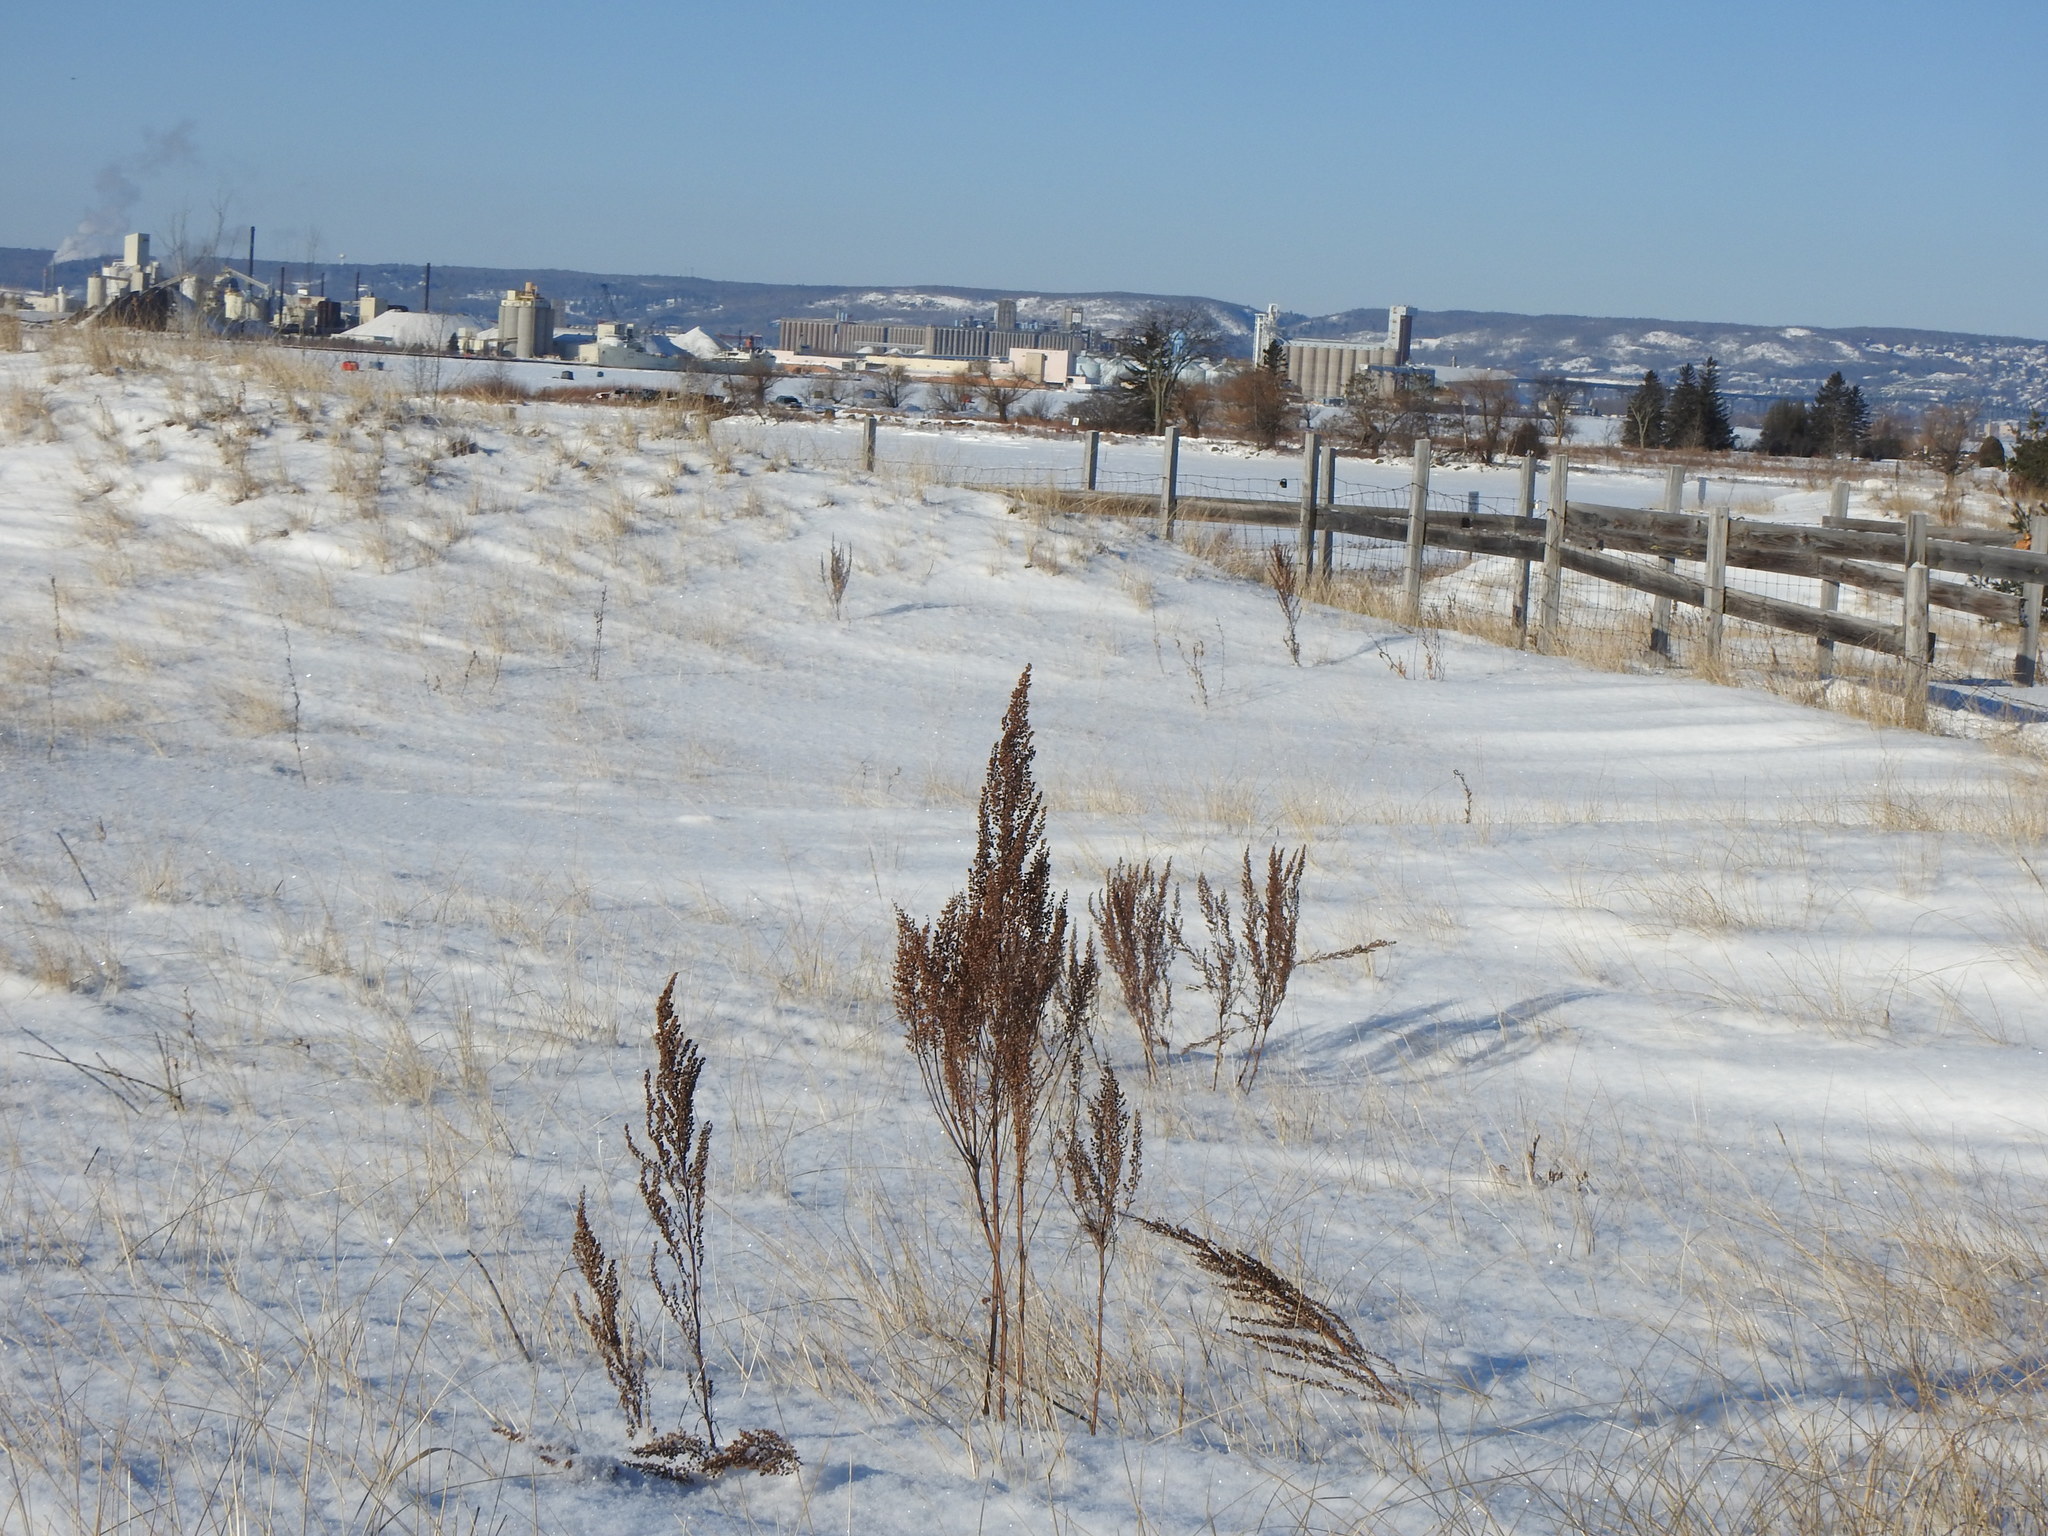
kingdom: Plantae
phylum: Tracheophyta
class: Magnoliopsida
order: Asterales
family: Asteraceae
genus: Artemisia
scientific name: Artemisia campestris
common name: Field wormwood
